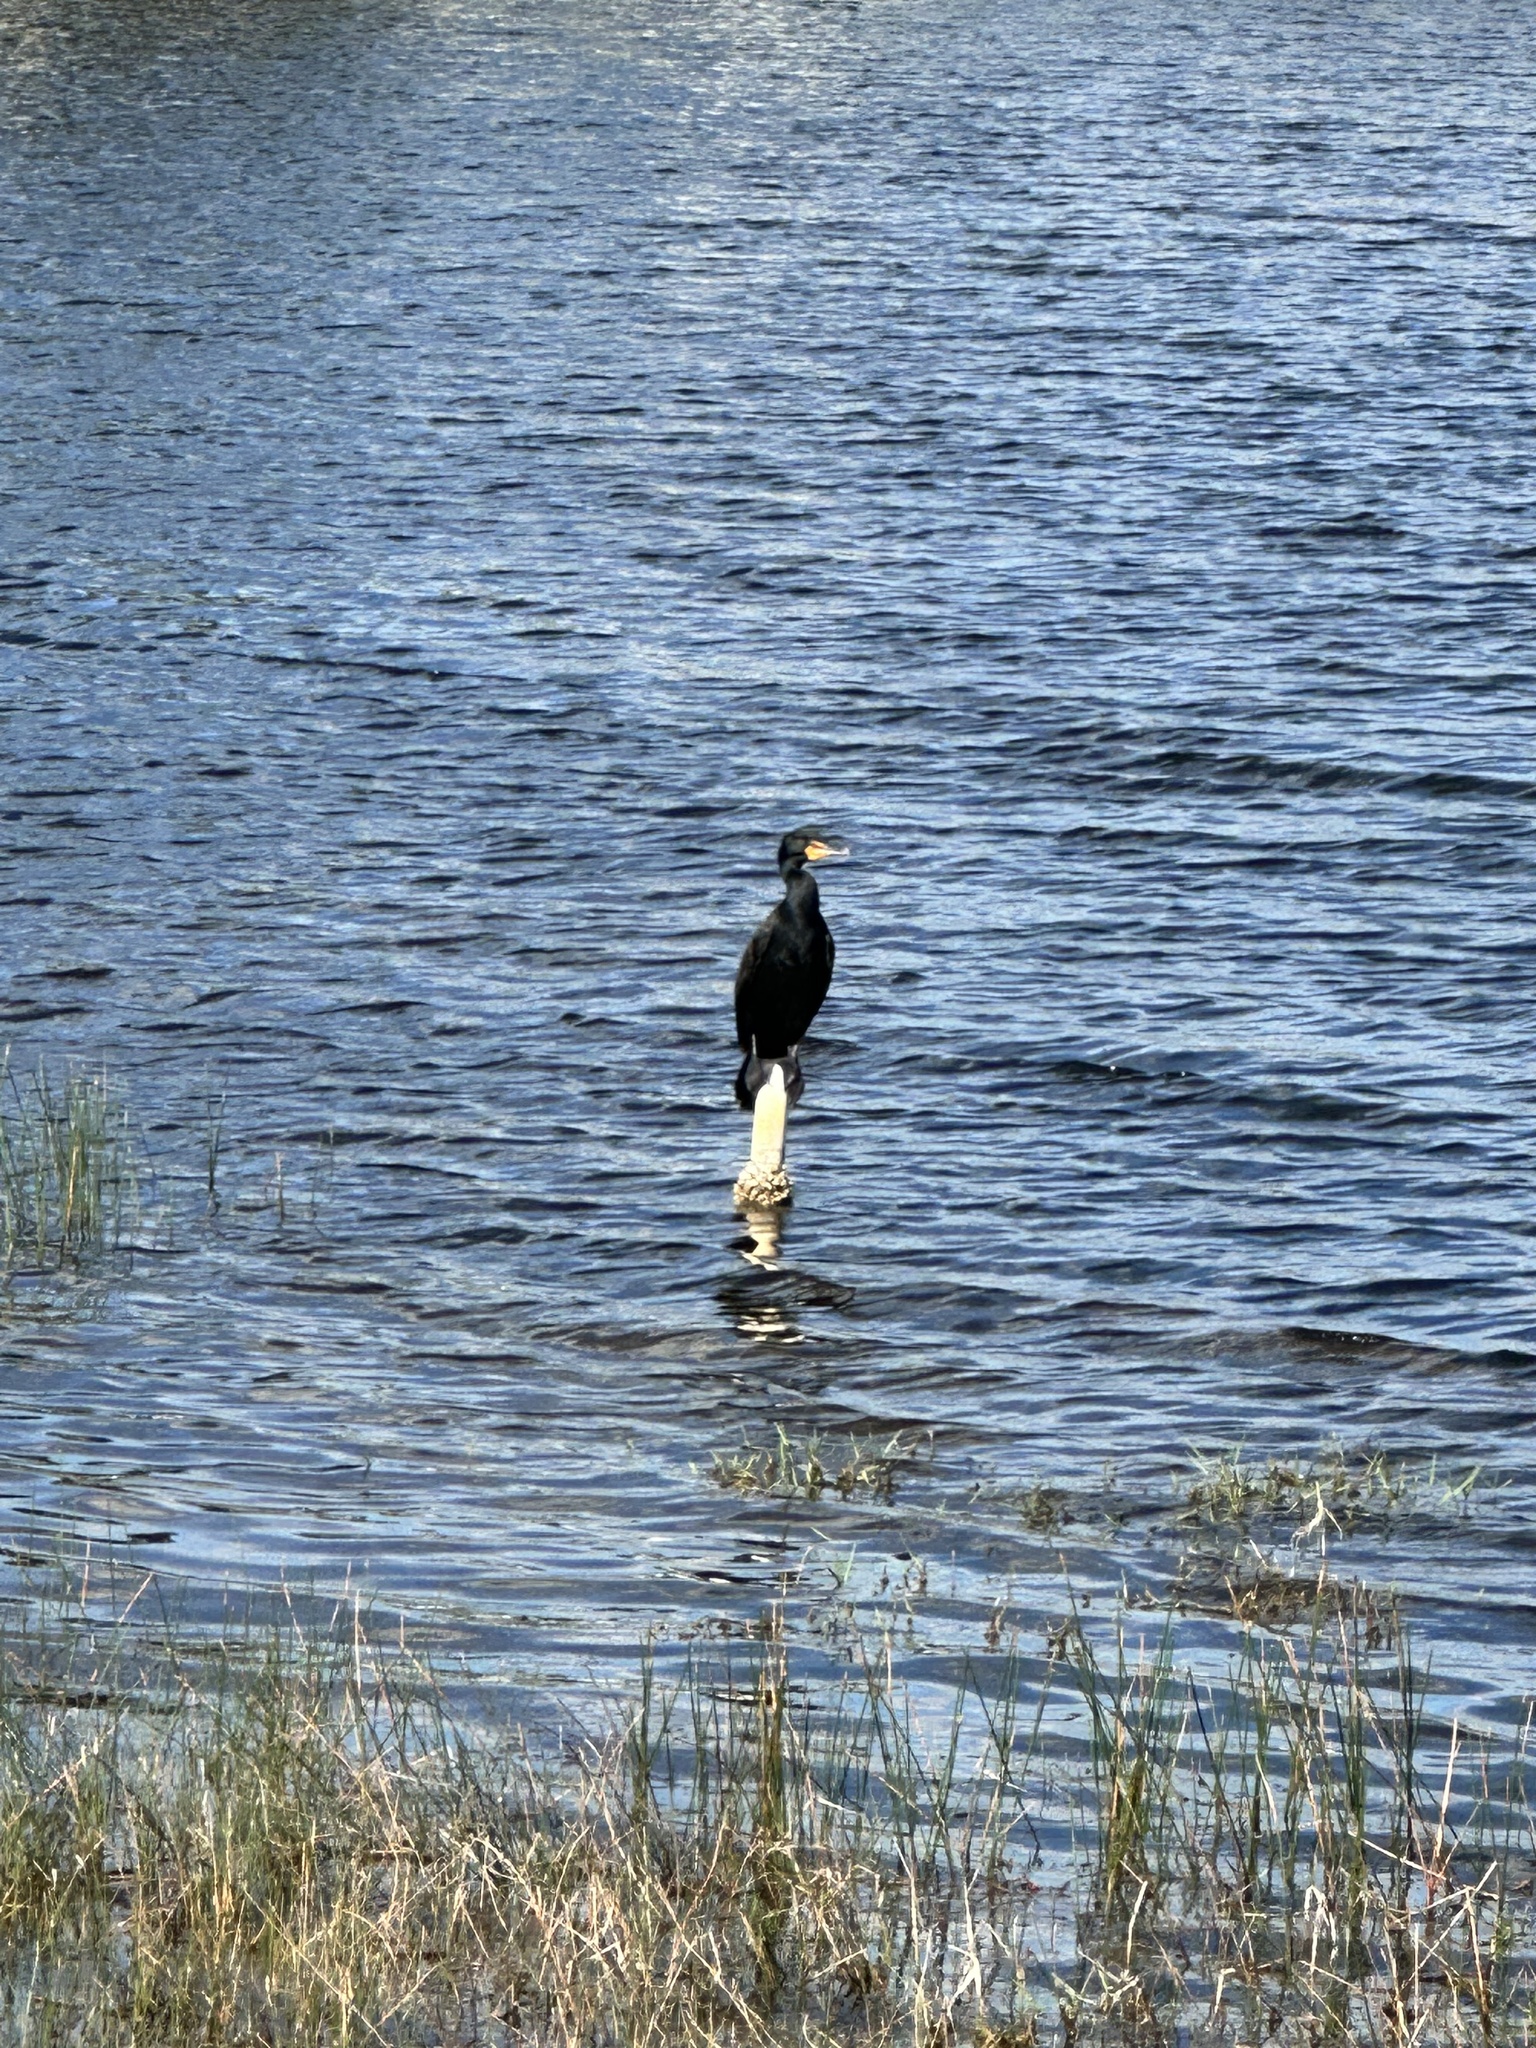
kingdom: Animalia
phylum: Chordata
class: Aves
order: Suliformes
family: Phalacrocoracidae
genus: Phalacrocorax
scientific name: Phalacrocorax auritus
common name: Double-crested cormorant
